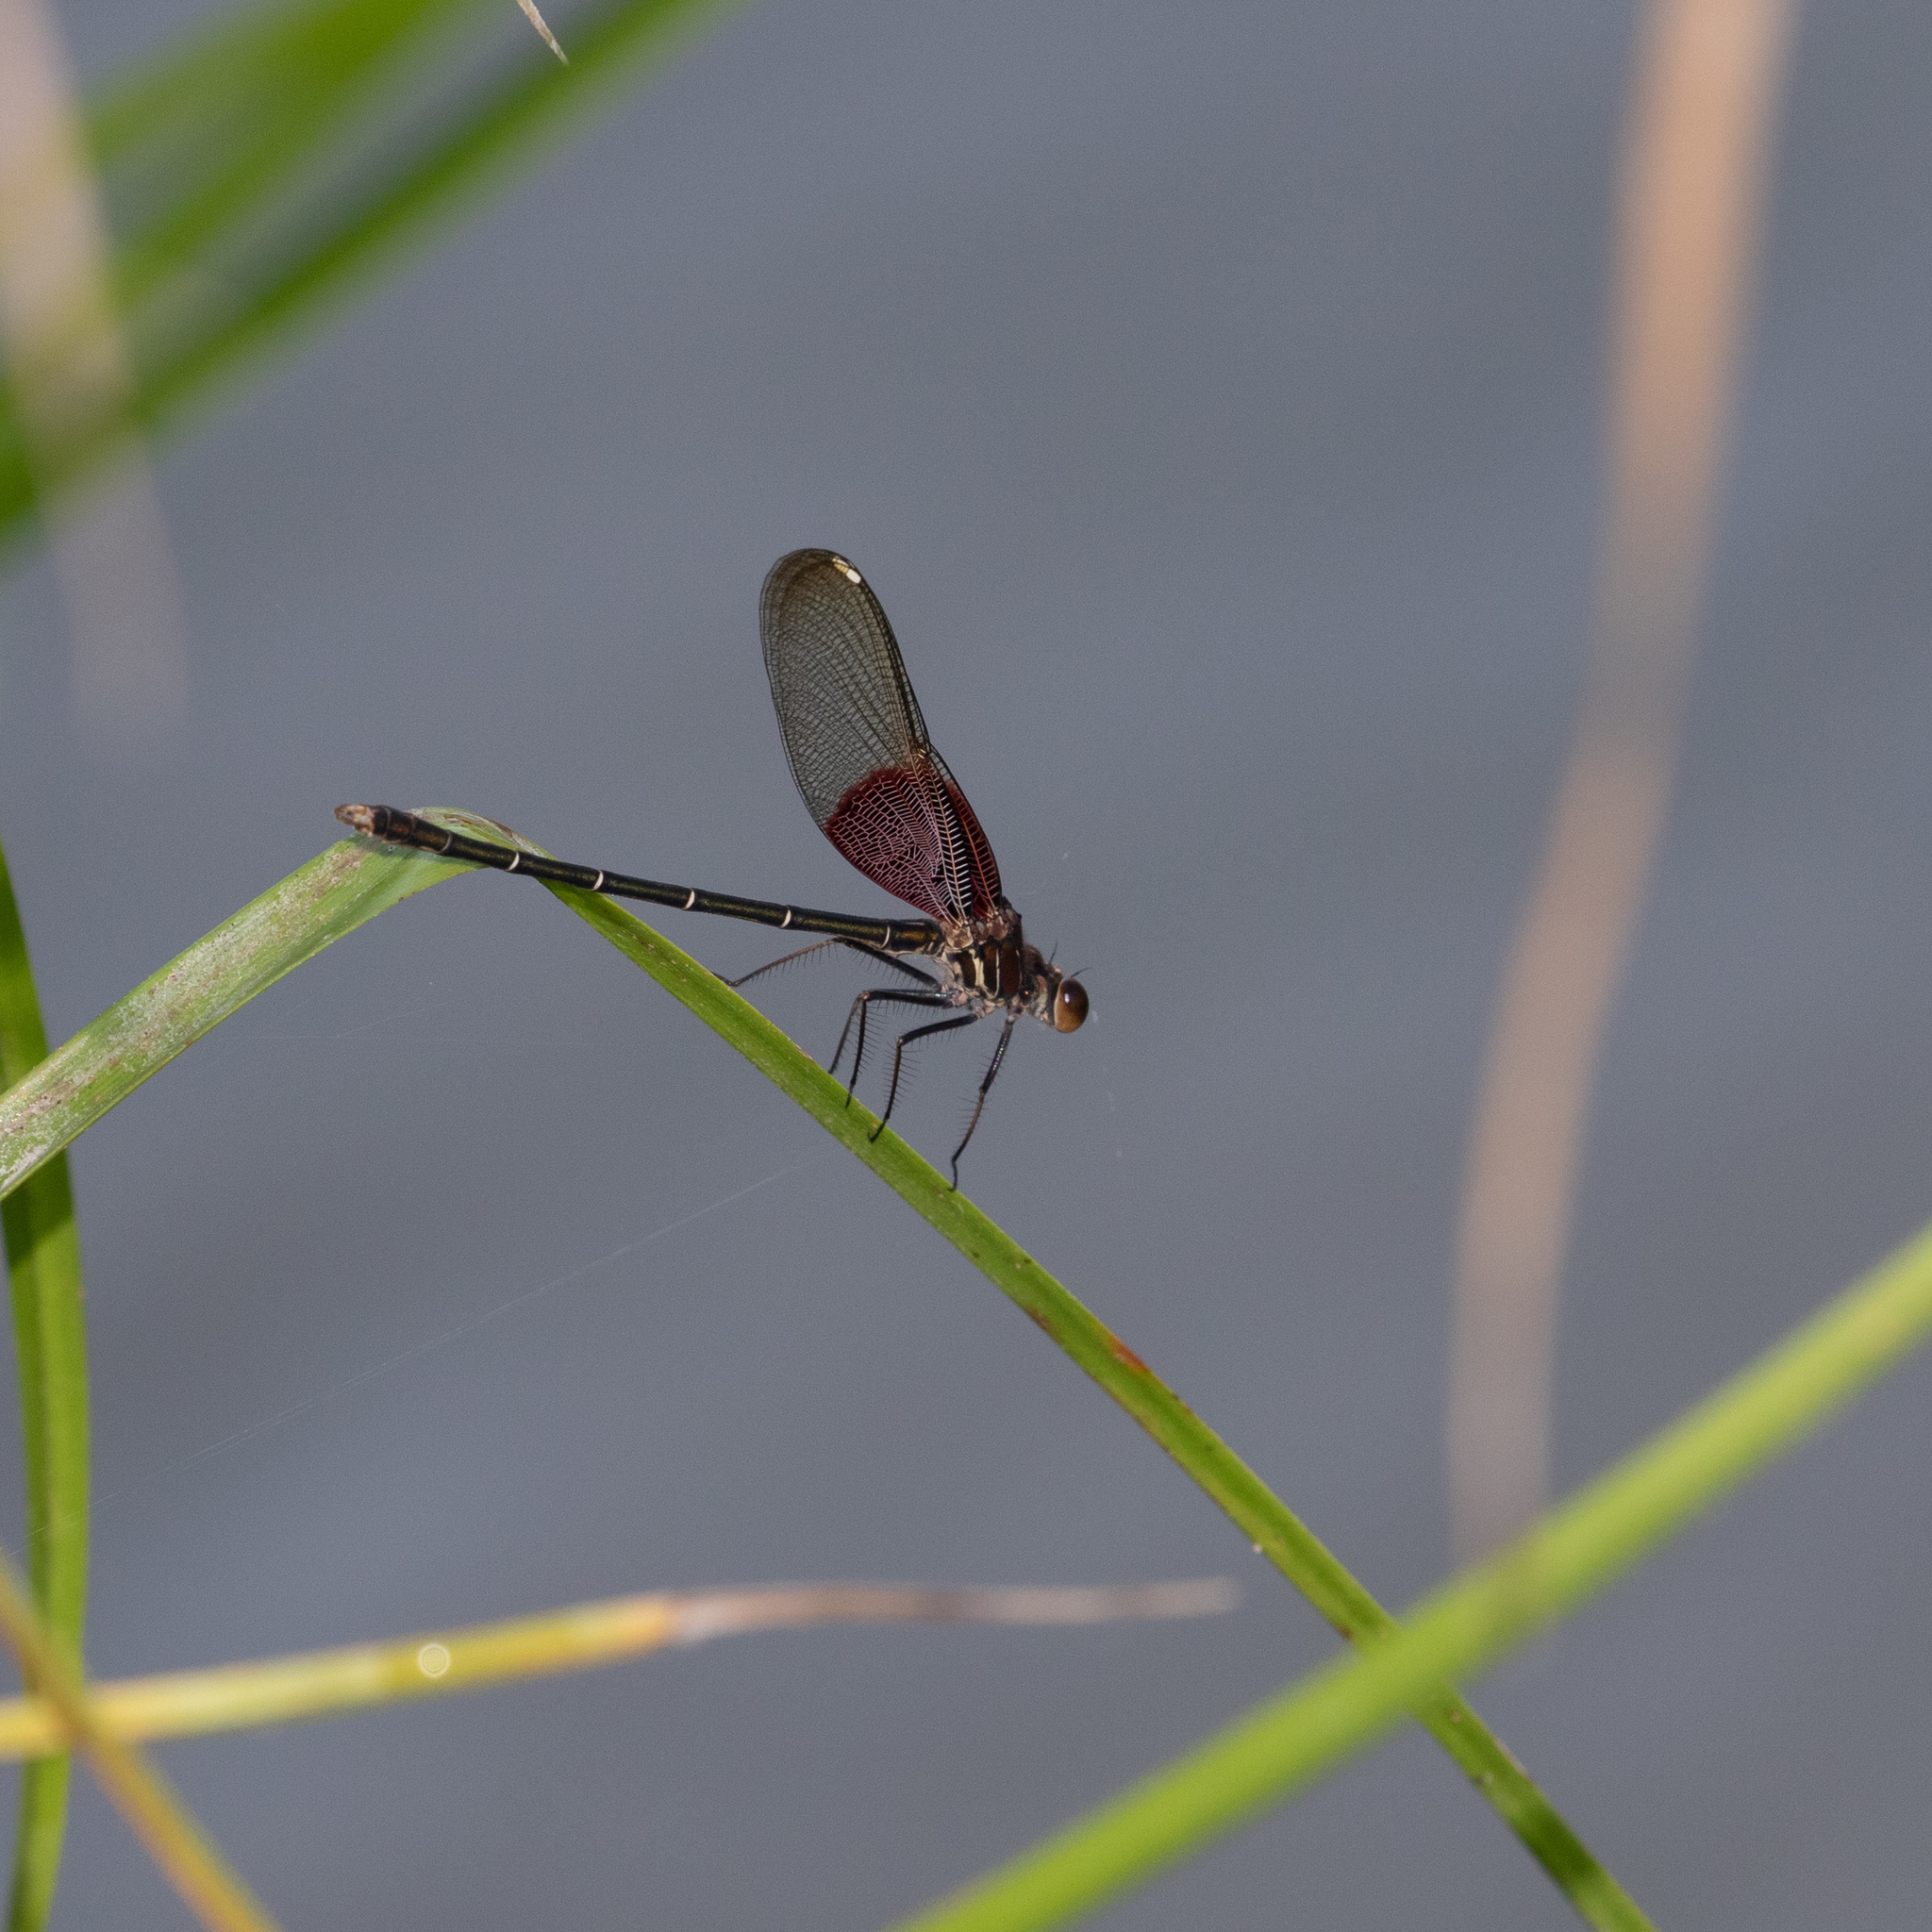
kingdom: Animalia
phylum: Arthropoda
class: Insecta
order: Odonata
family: Calopterygidae
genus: Hetaerina
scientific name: Hetaerina americana
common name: American rubyspot
